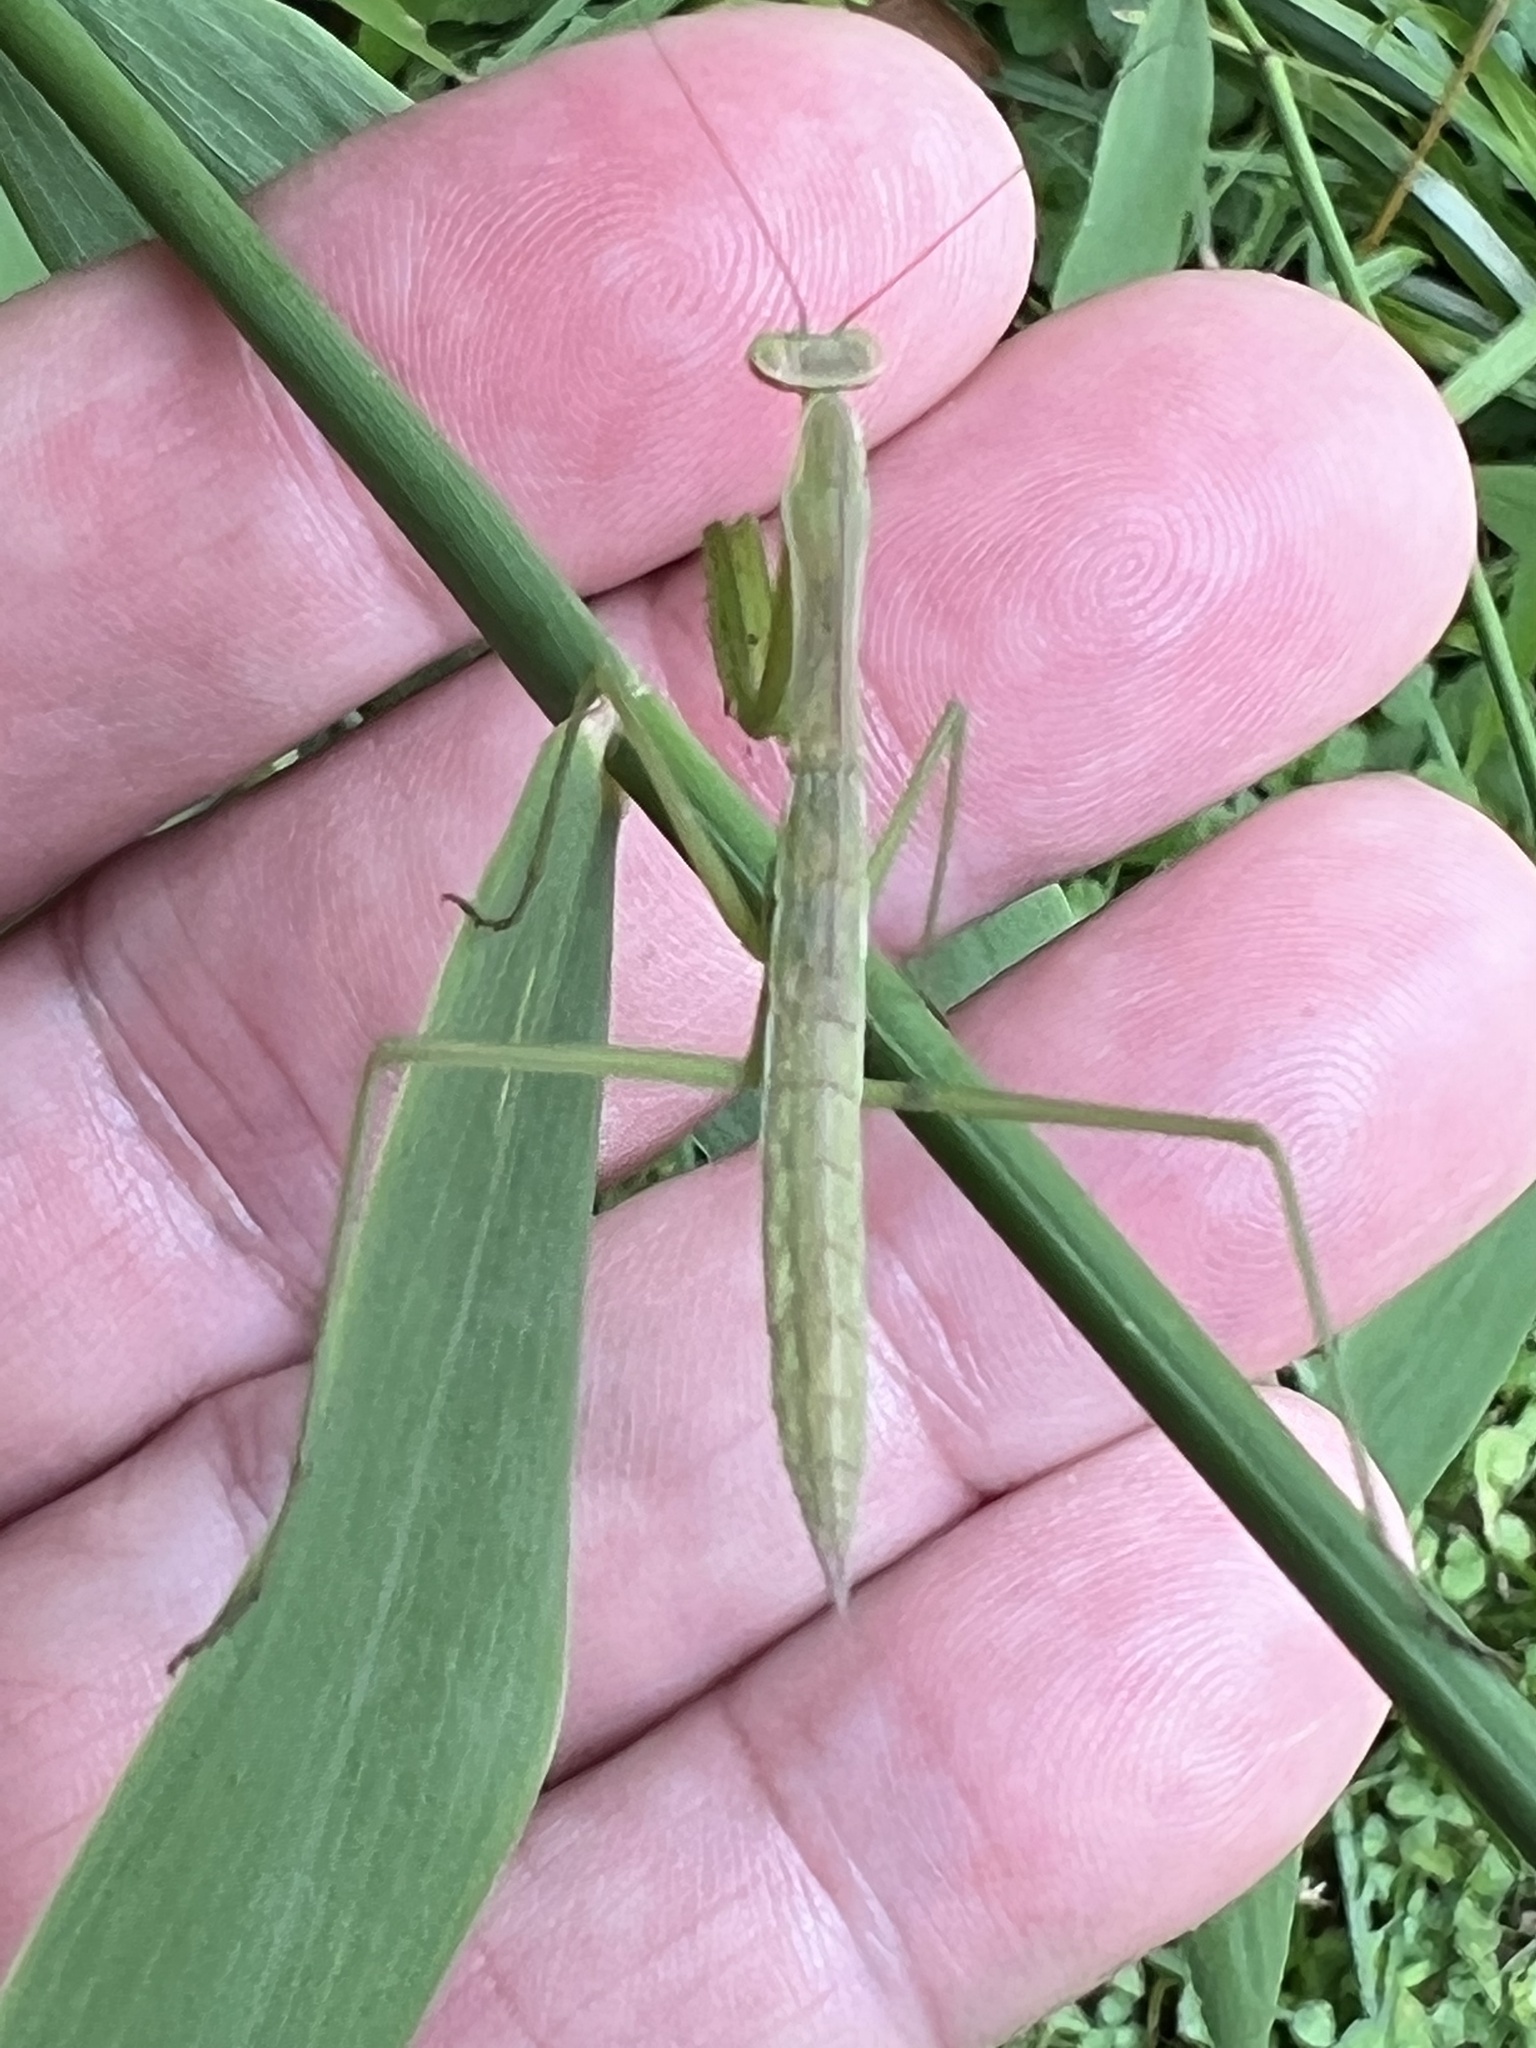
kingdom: Animalia
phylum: Arthropoda
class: Insecta
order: Mantodea
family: Mantidae
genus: Tenodera
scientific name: Tenodera sinensis
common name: Chinese mantis
